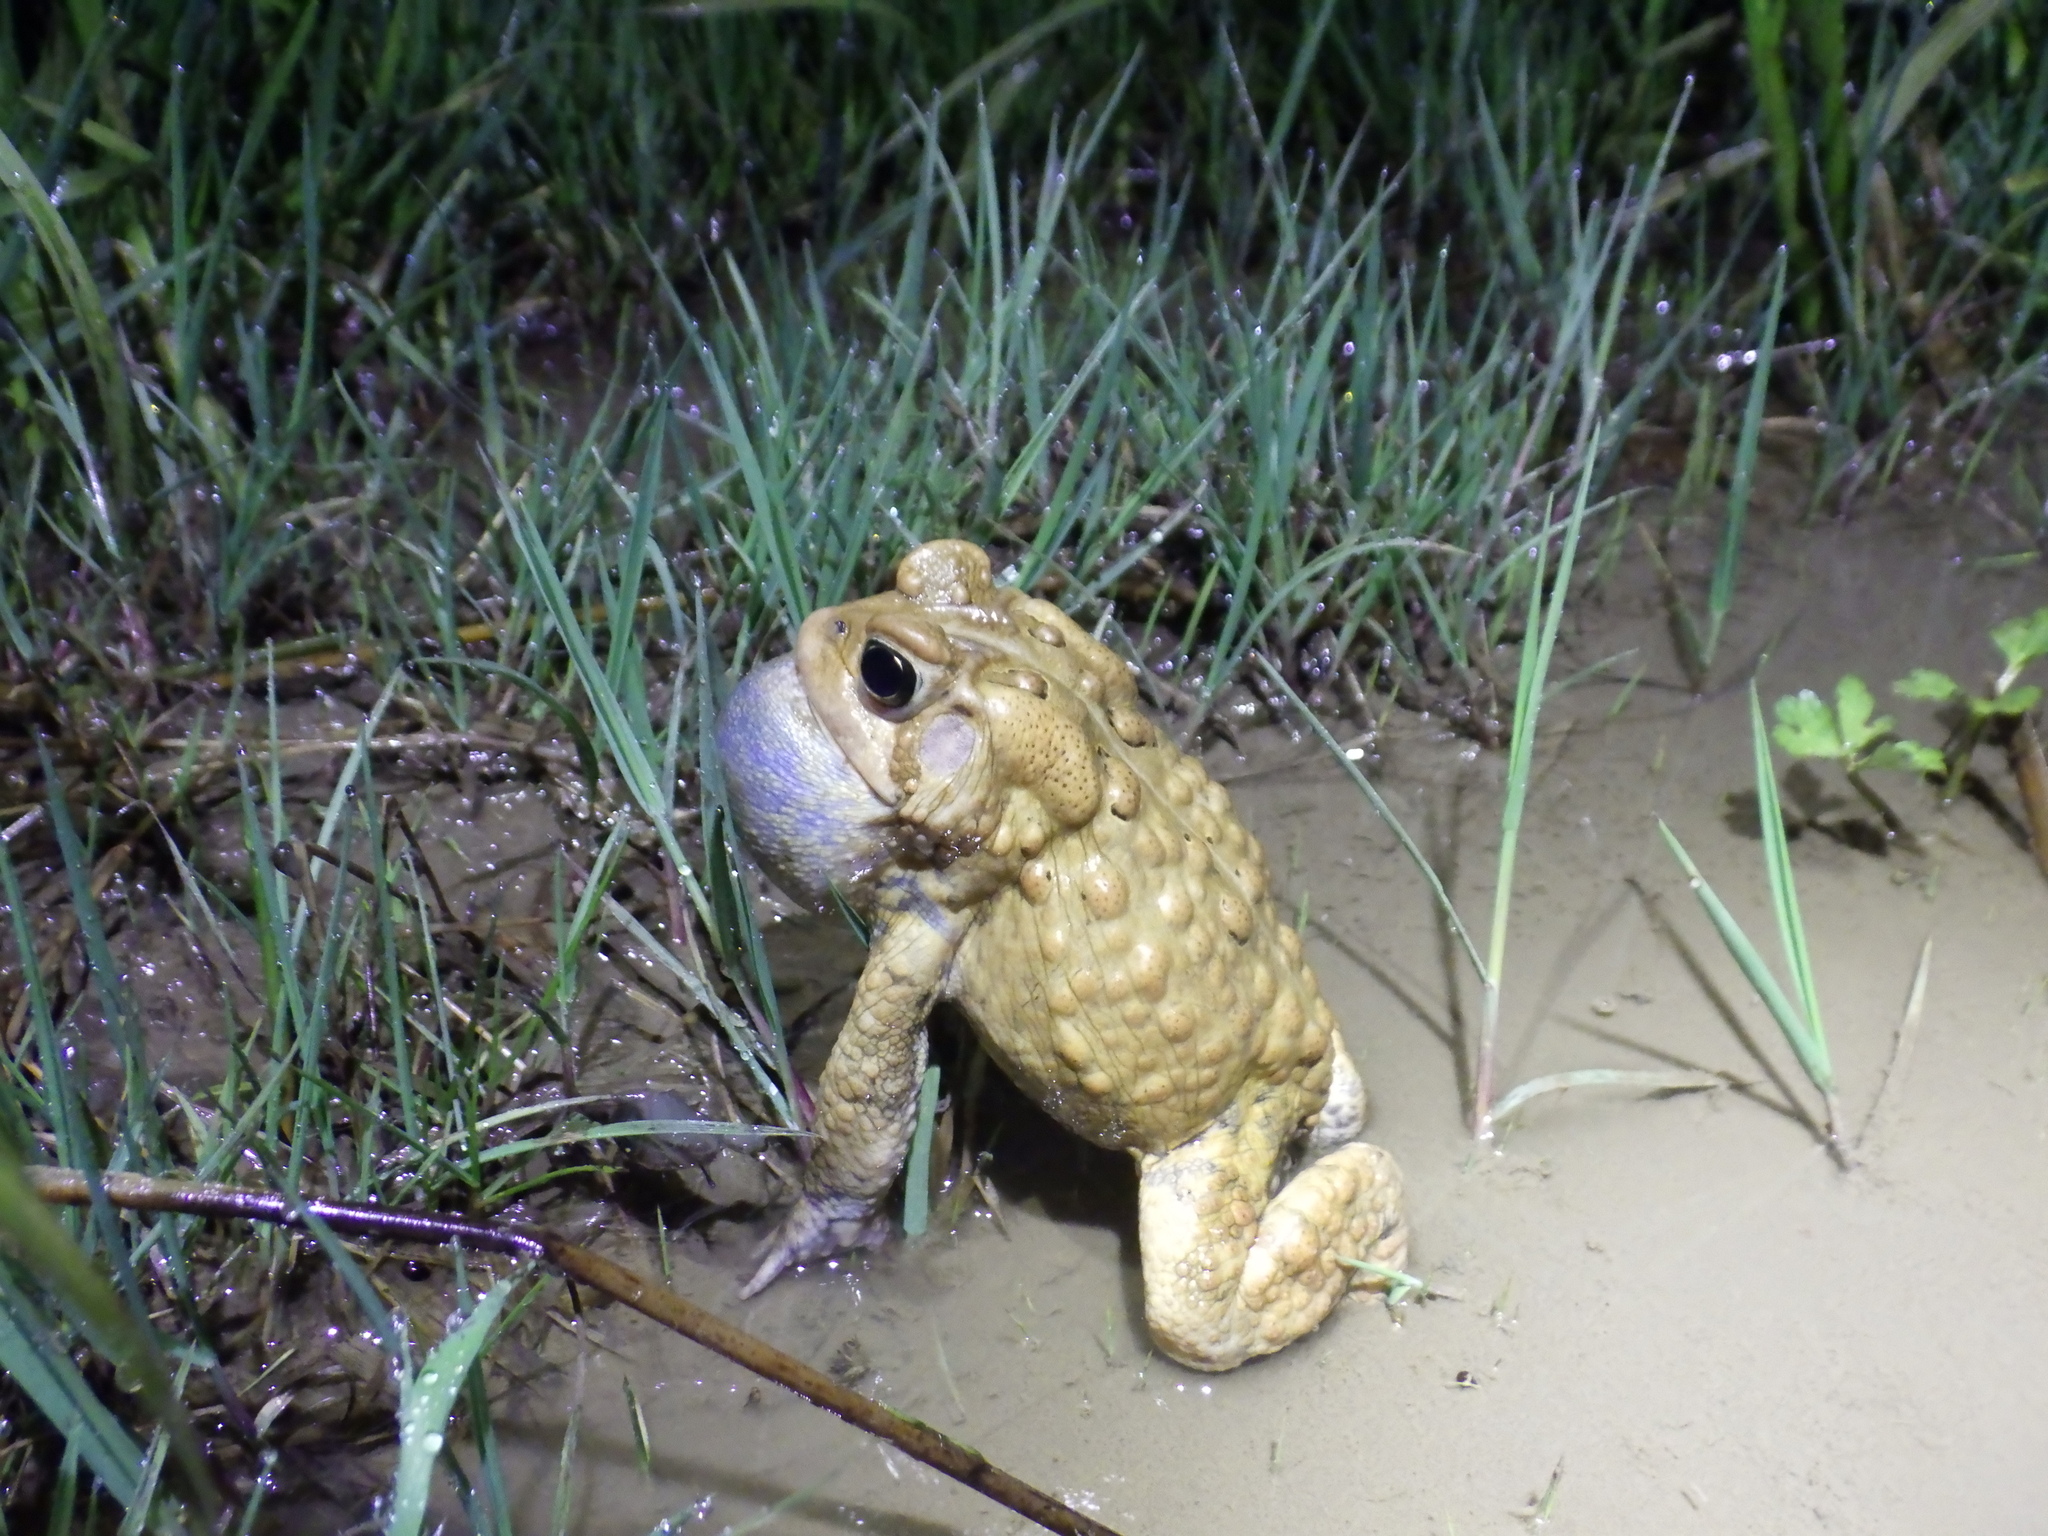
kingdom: Animalia
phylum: Chordata
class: Amphibia
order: Anura
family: Bufonidae
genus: Anaxyrus
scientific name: Anaxyrus americanus
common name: American toad
